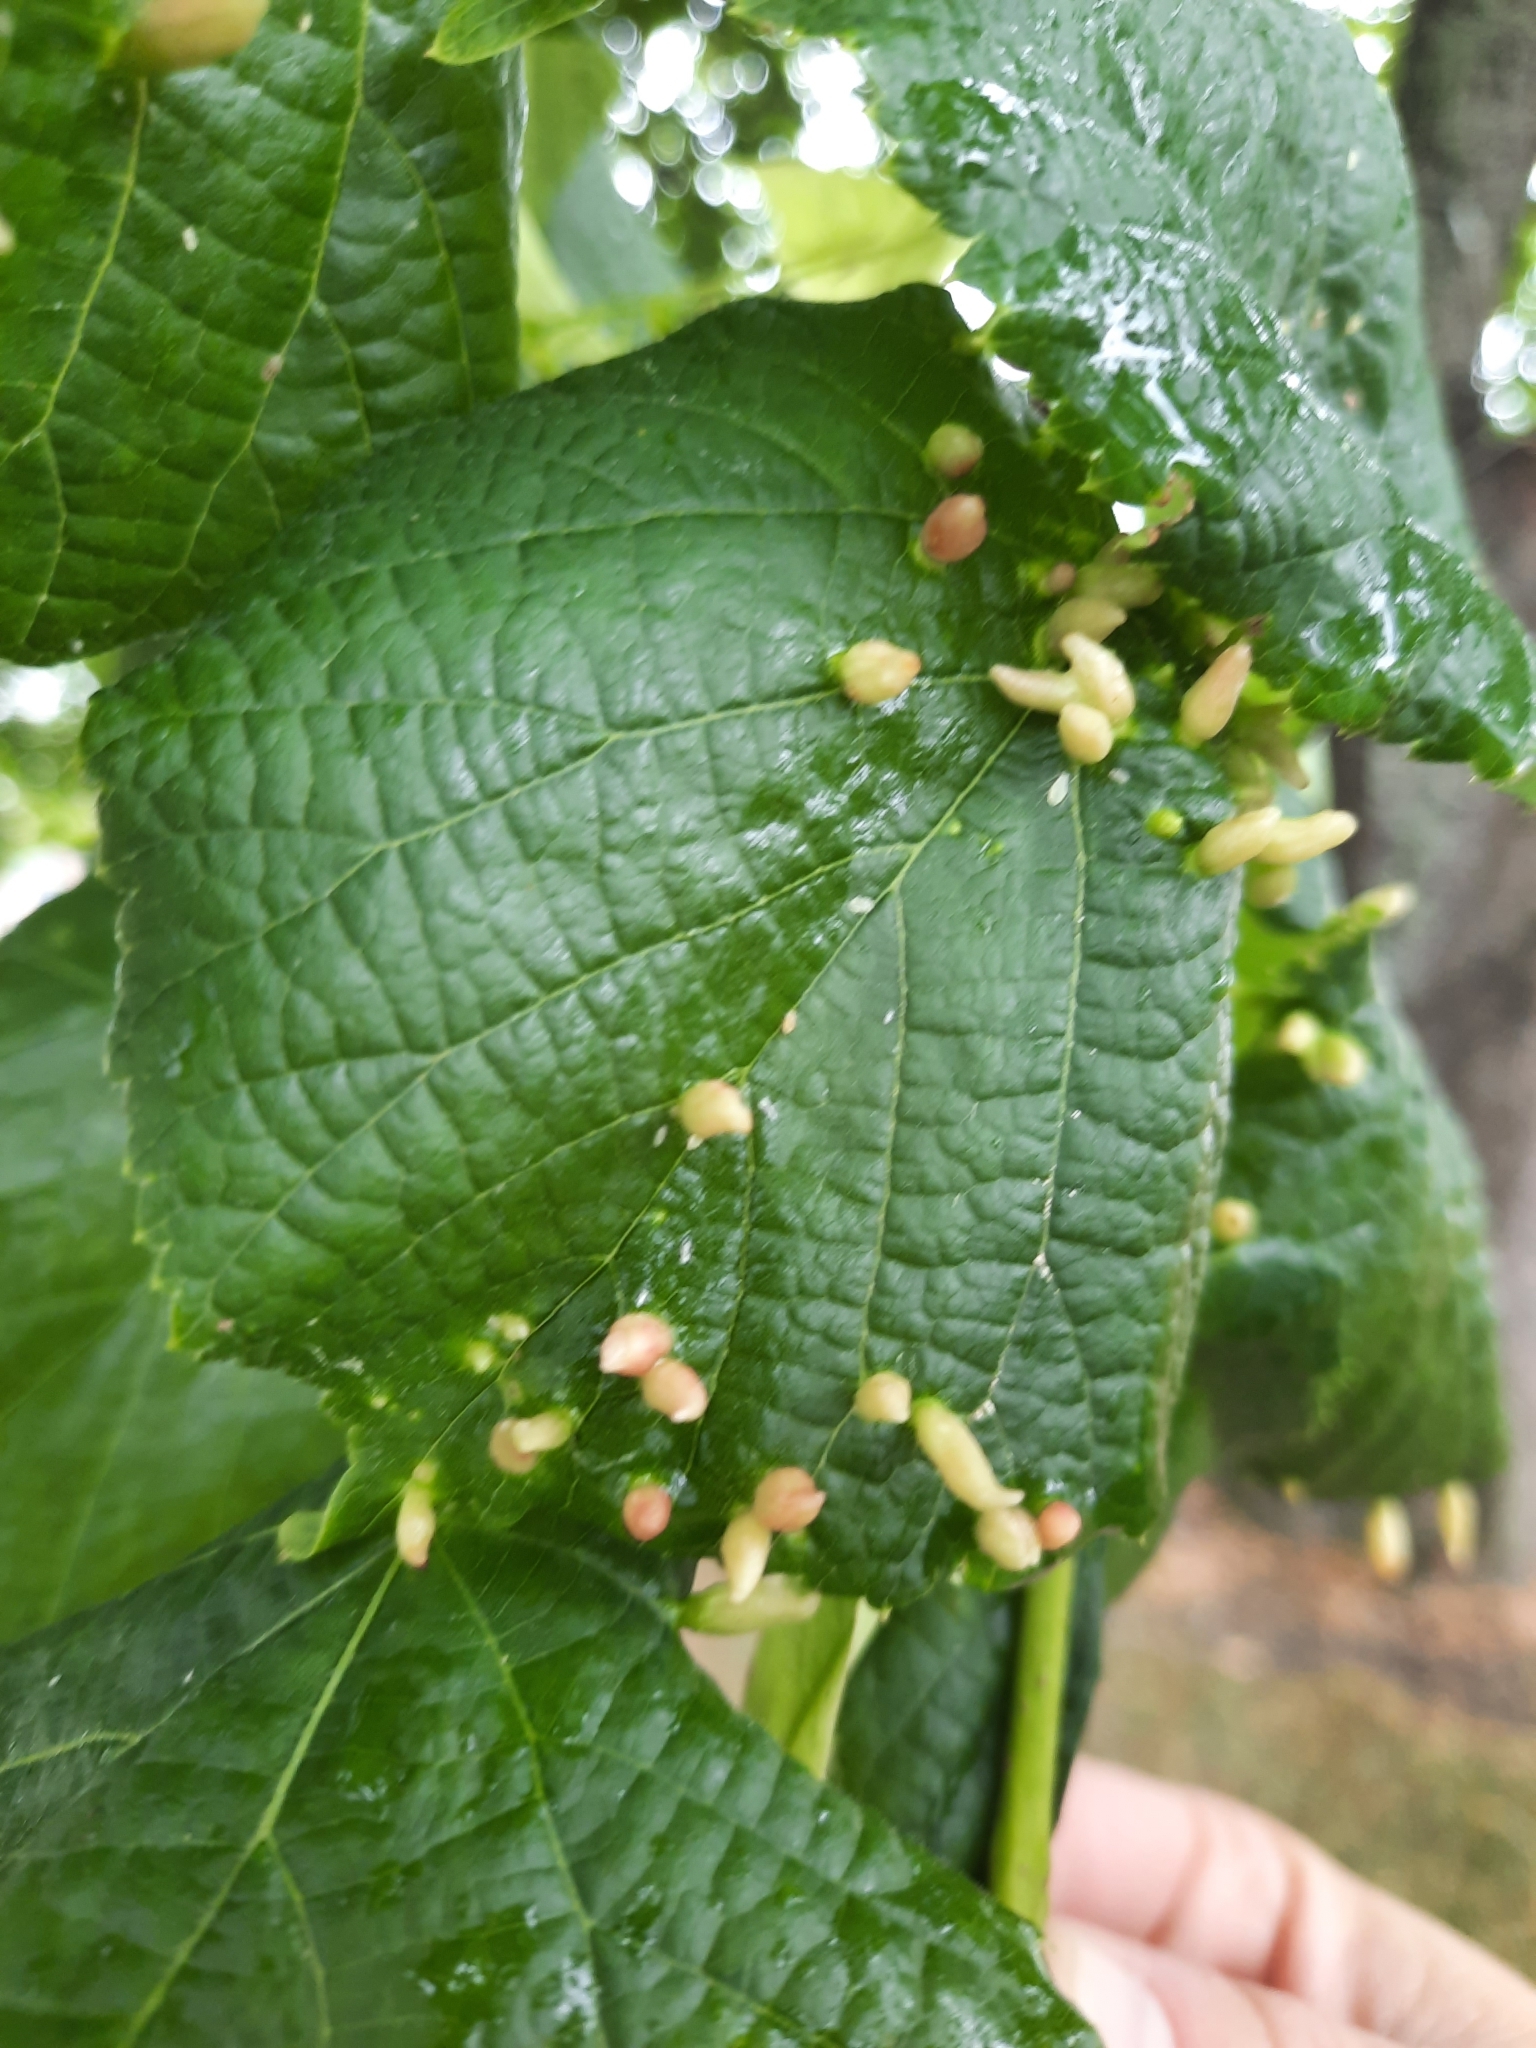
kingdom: Animalia
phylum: Arthropoda
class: Arachnida
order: Trombidiformes
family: Eriophyidae
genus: Eriophyes
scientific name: Eriophyes tiliae
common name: Red nail gall mite
